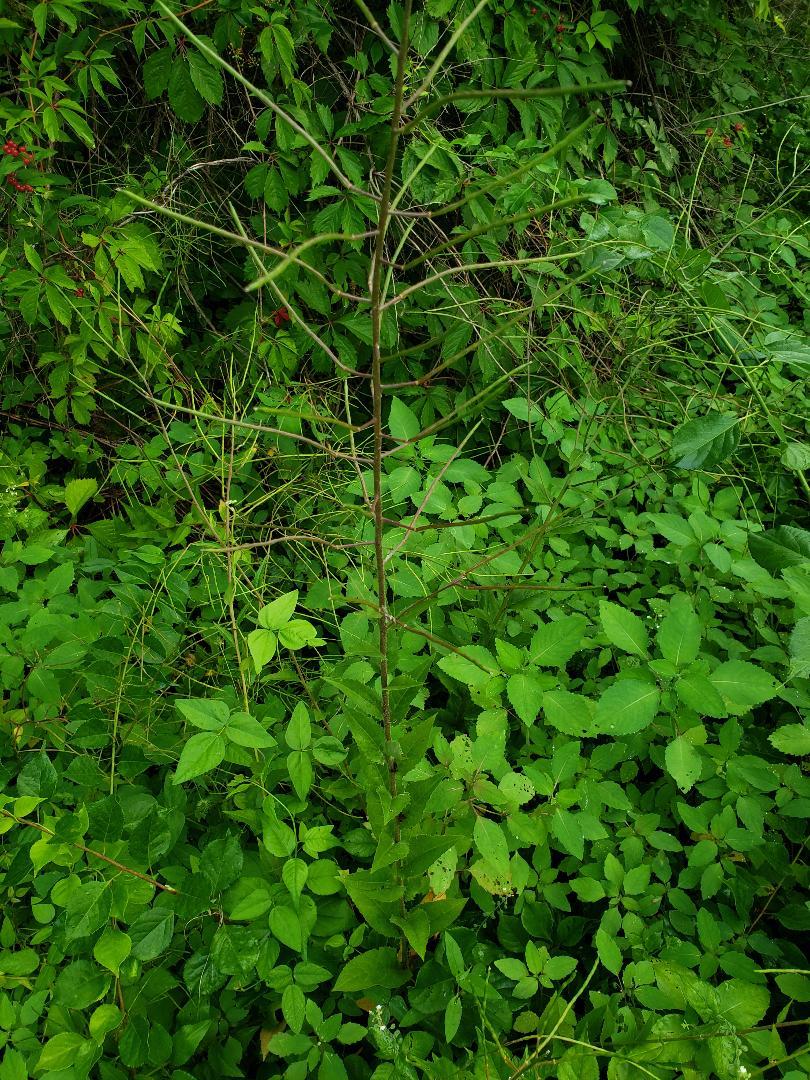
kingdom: Plantae
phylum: Tracheophyta
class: Magnoliopsida
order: Brassicales
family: Brassicaceae
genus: Hesperis
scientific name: Hesperis matronalis
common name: Dame's-violet
